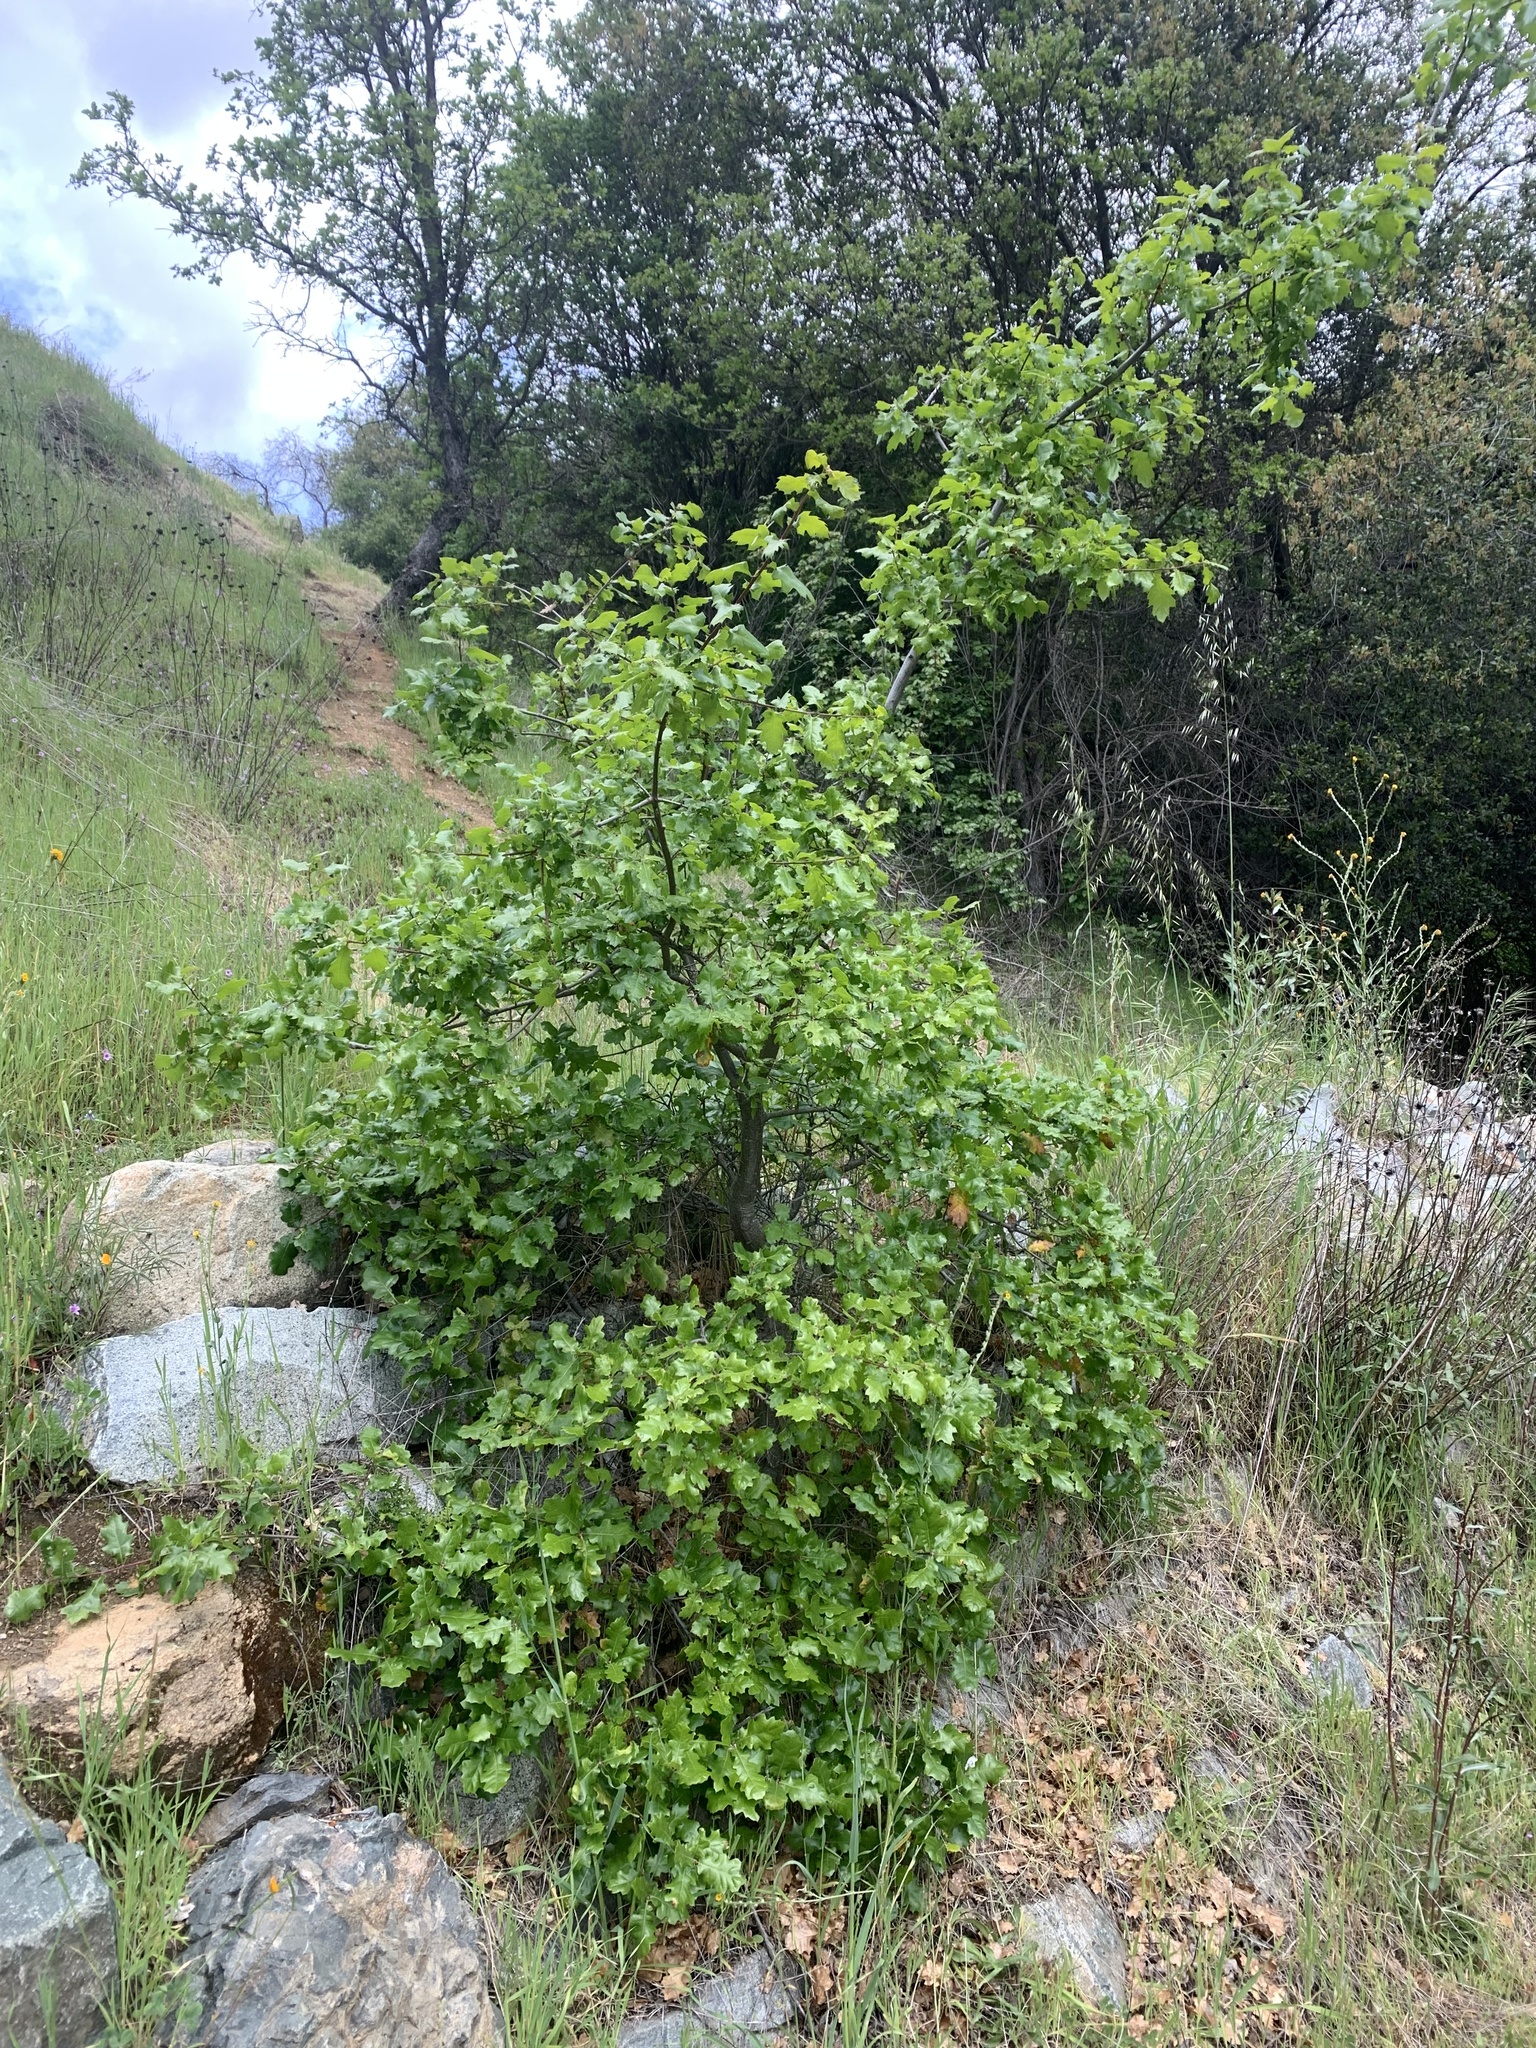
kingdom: Plantae
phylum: Tracheophyta
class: Magnoliopsida
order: Fagales
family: Fagaceae
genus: Quercus
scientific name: Quercus morehus
